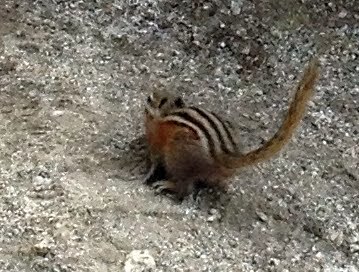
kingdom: Animalia
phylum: Chordata
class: Mammalia
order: Rodentia
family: Sciuridae
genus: Tamias
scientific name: Tamias amoenus
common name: Yellow-pine chipmunk
